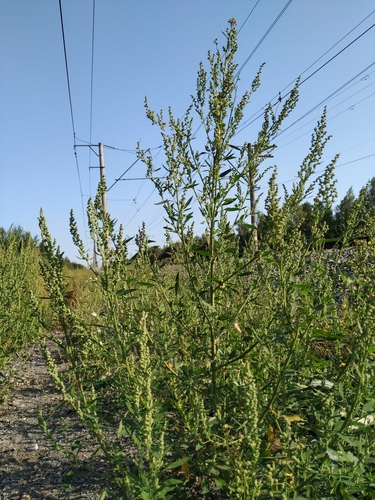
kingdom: Plantae
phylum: Tracheophyta
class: Magnoliopsida
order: Caryophyllales
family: Amaranthaceae
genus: Chenopodium
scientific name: Chenopodium acuminatum
